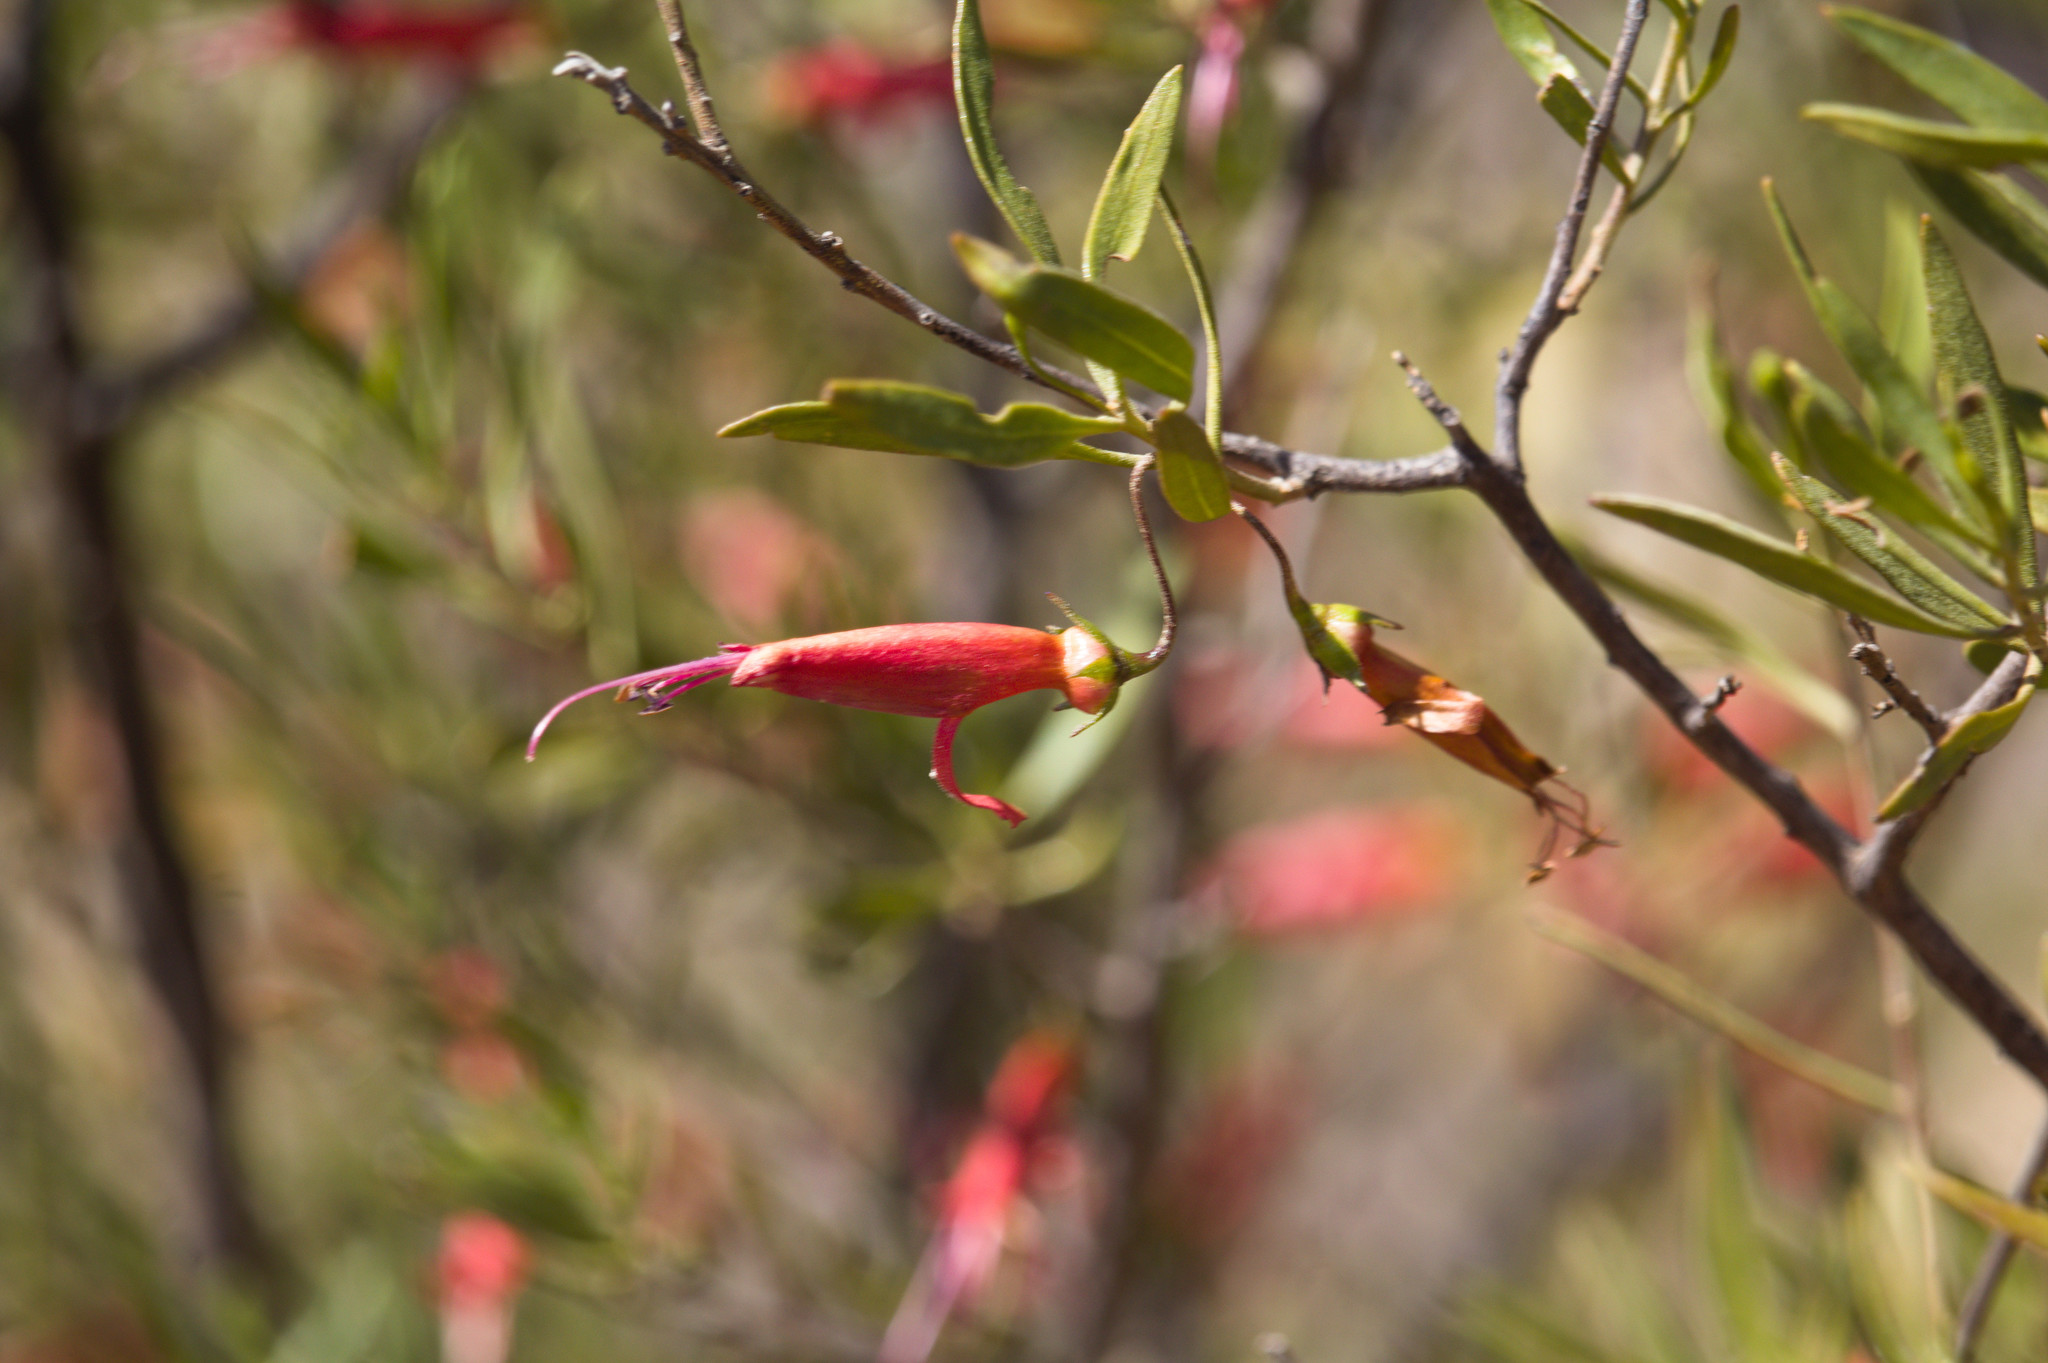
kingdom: Plantae
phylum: Tracheophyta
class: Magnoliopsida
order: Lamiales
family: Scrophulariaceae
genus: Eremophila
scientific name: Eremophila decipiens
